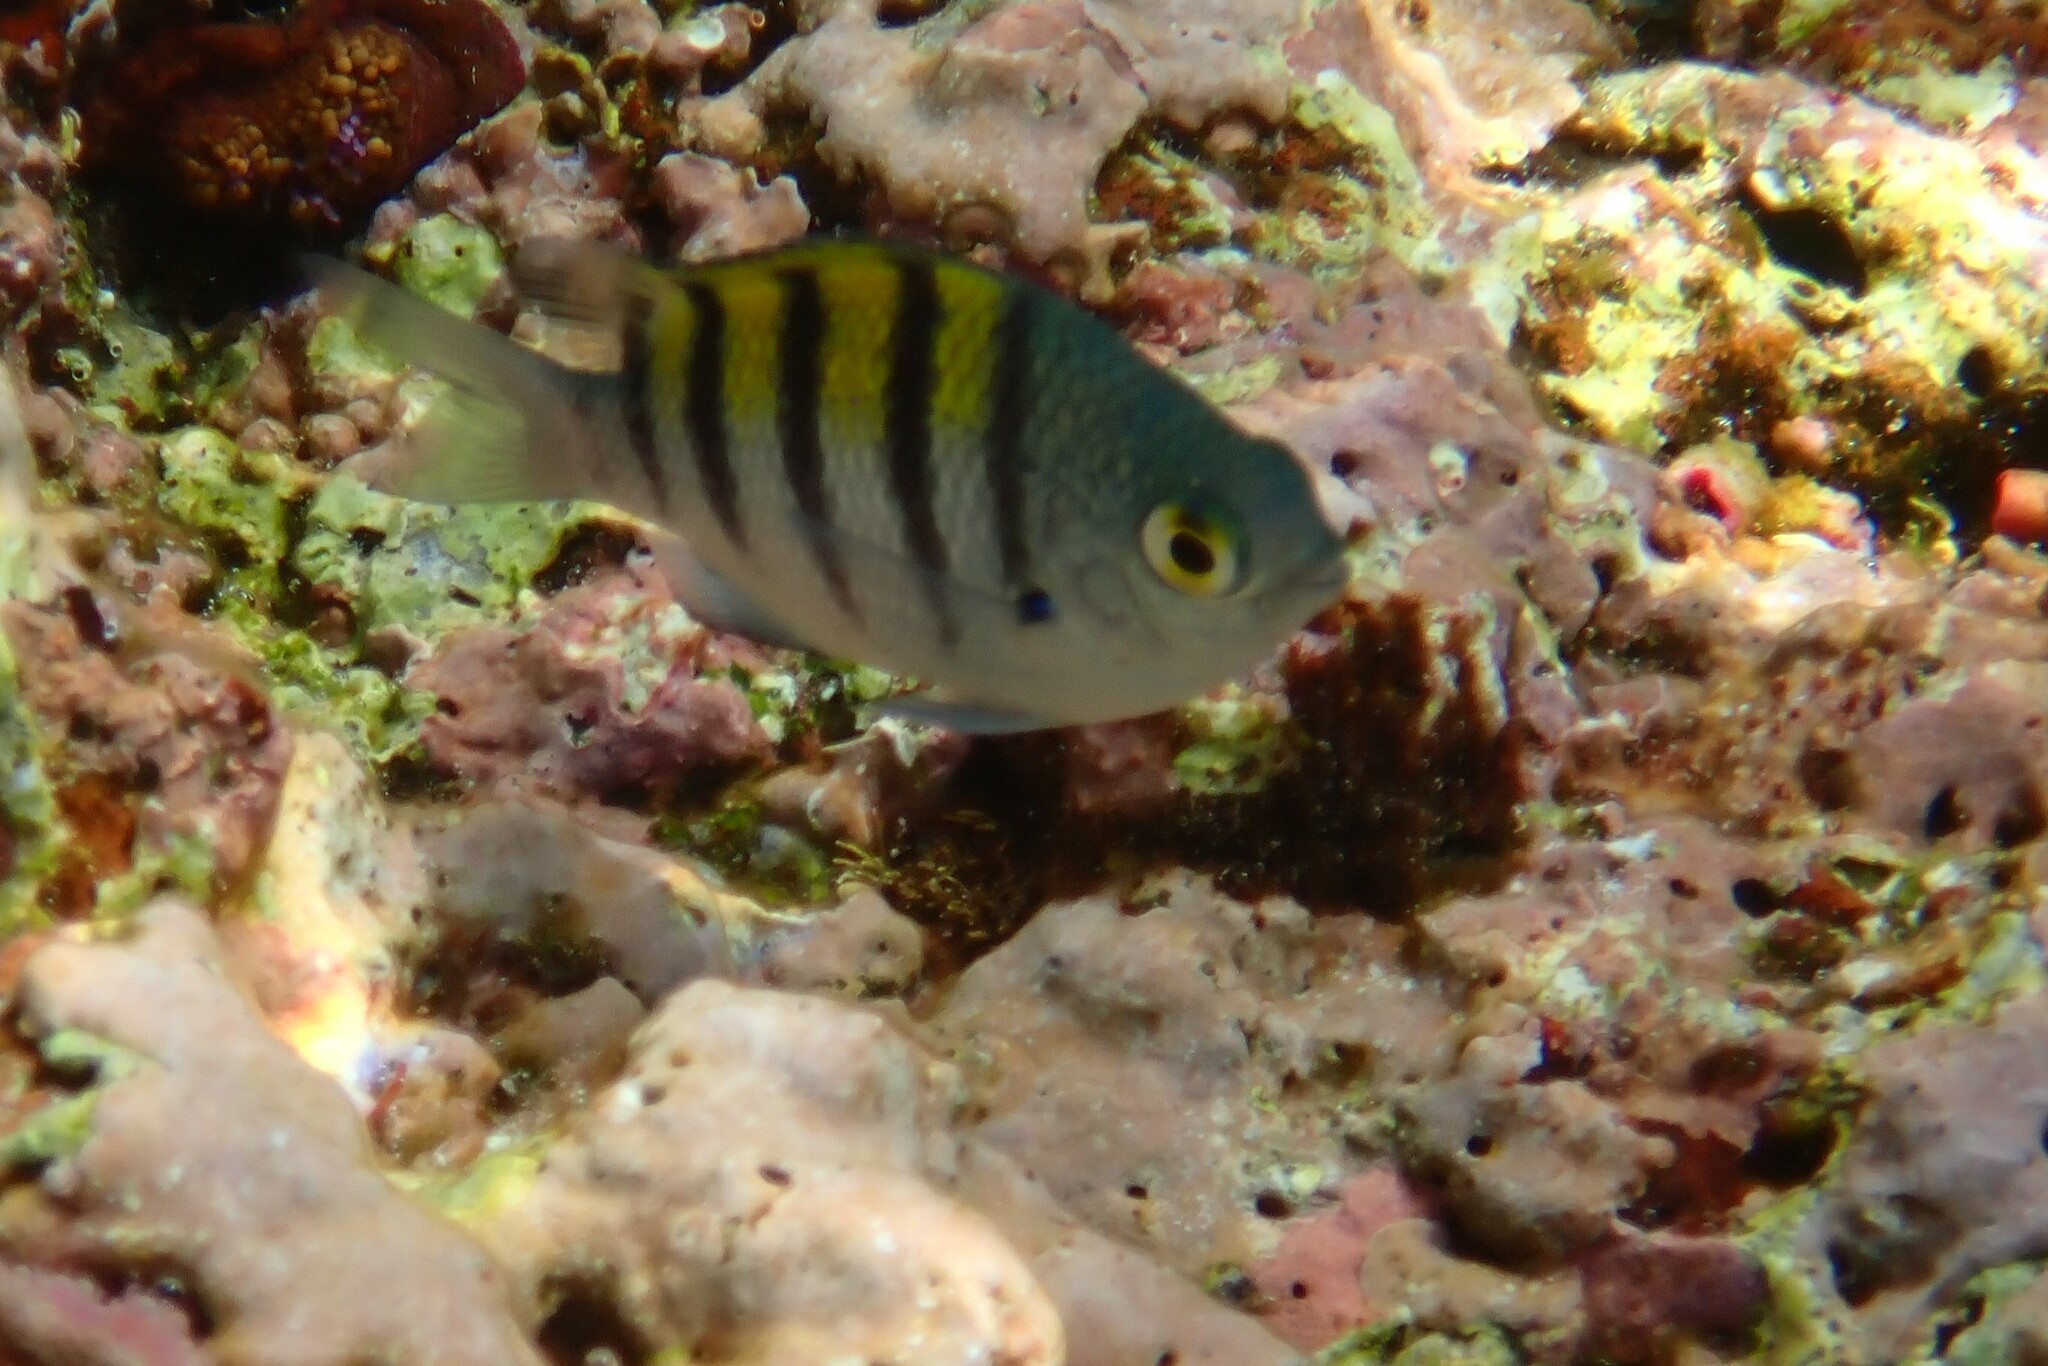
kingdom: Animalia
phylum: Chordata
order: Perciformes
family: Pomacentridae
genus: Abudefduf
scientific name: Abudefduf troschelii
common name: Panamic sergeant major
